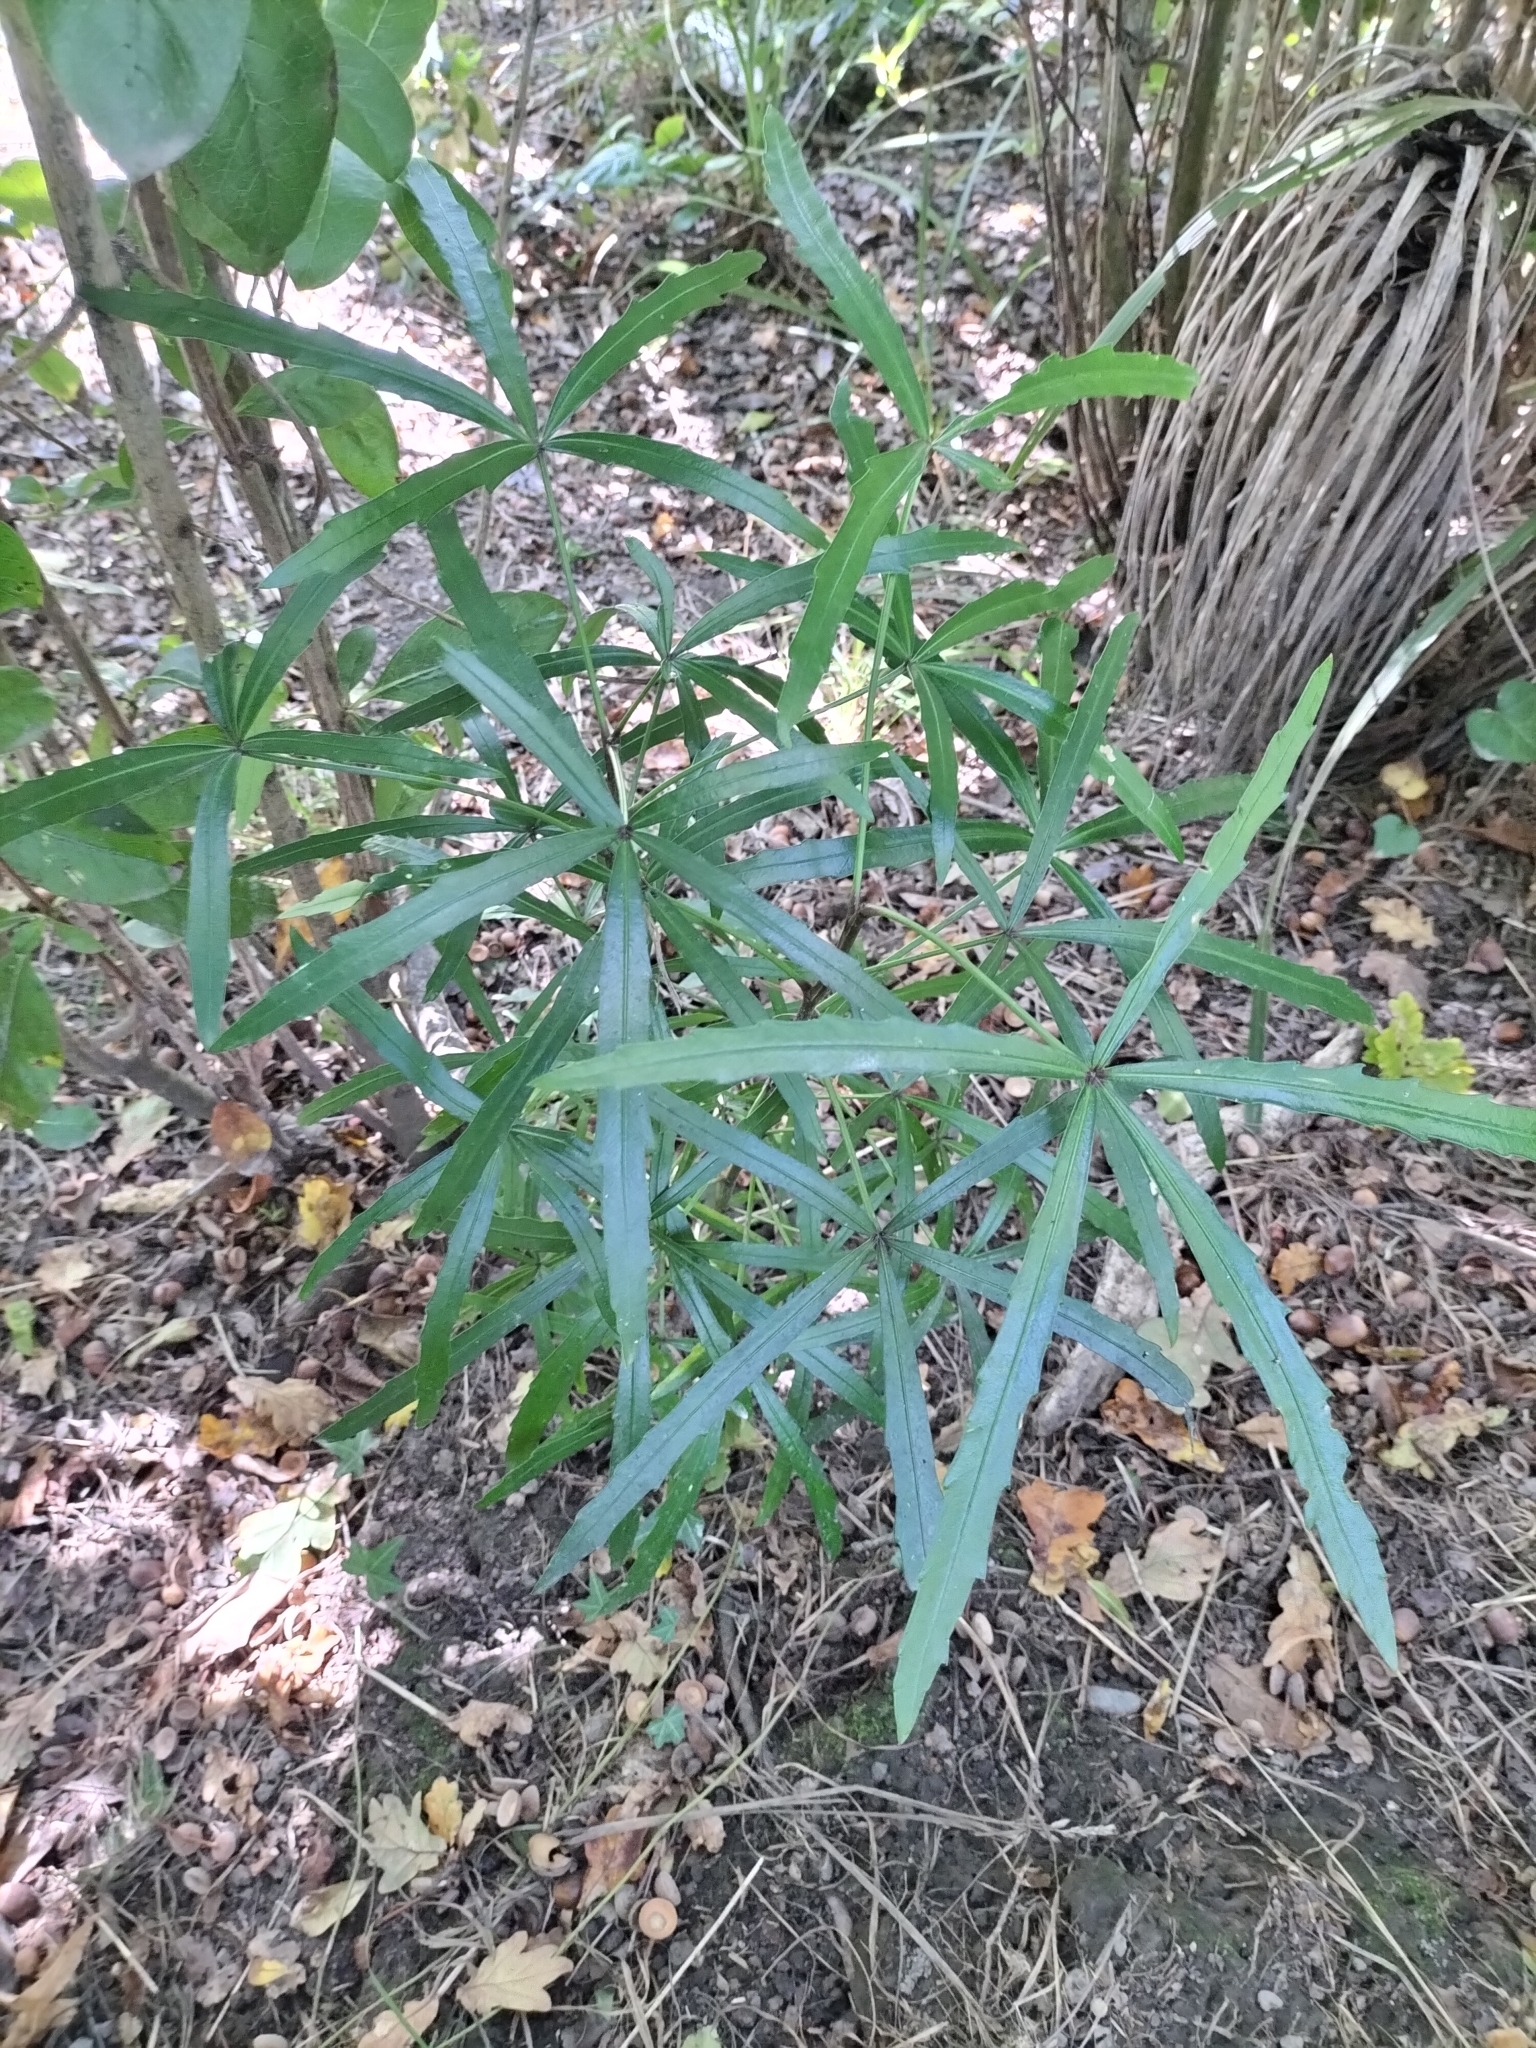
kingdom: Plantae
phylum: Tracheophyta
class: Magnoliopsida
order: Apiales
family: Araliaceae
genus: Pseudopanax
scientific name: Pseudopanax
